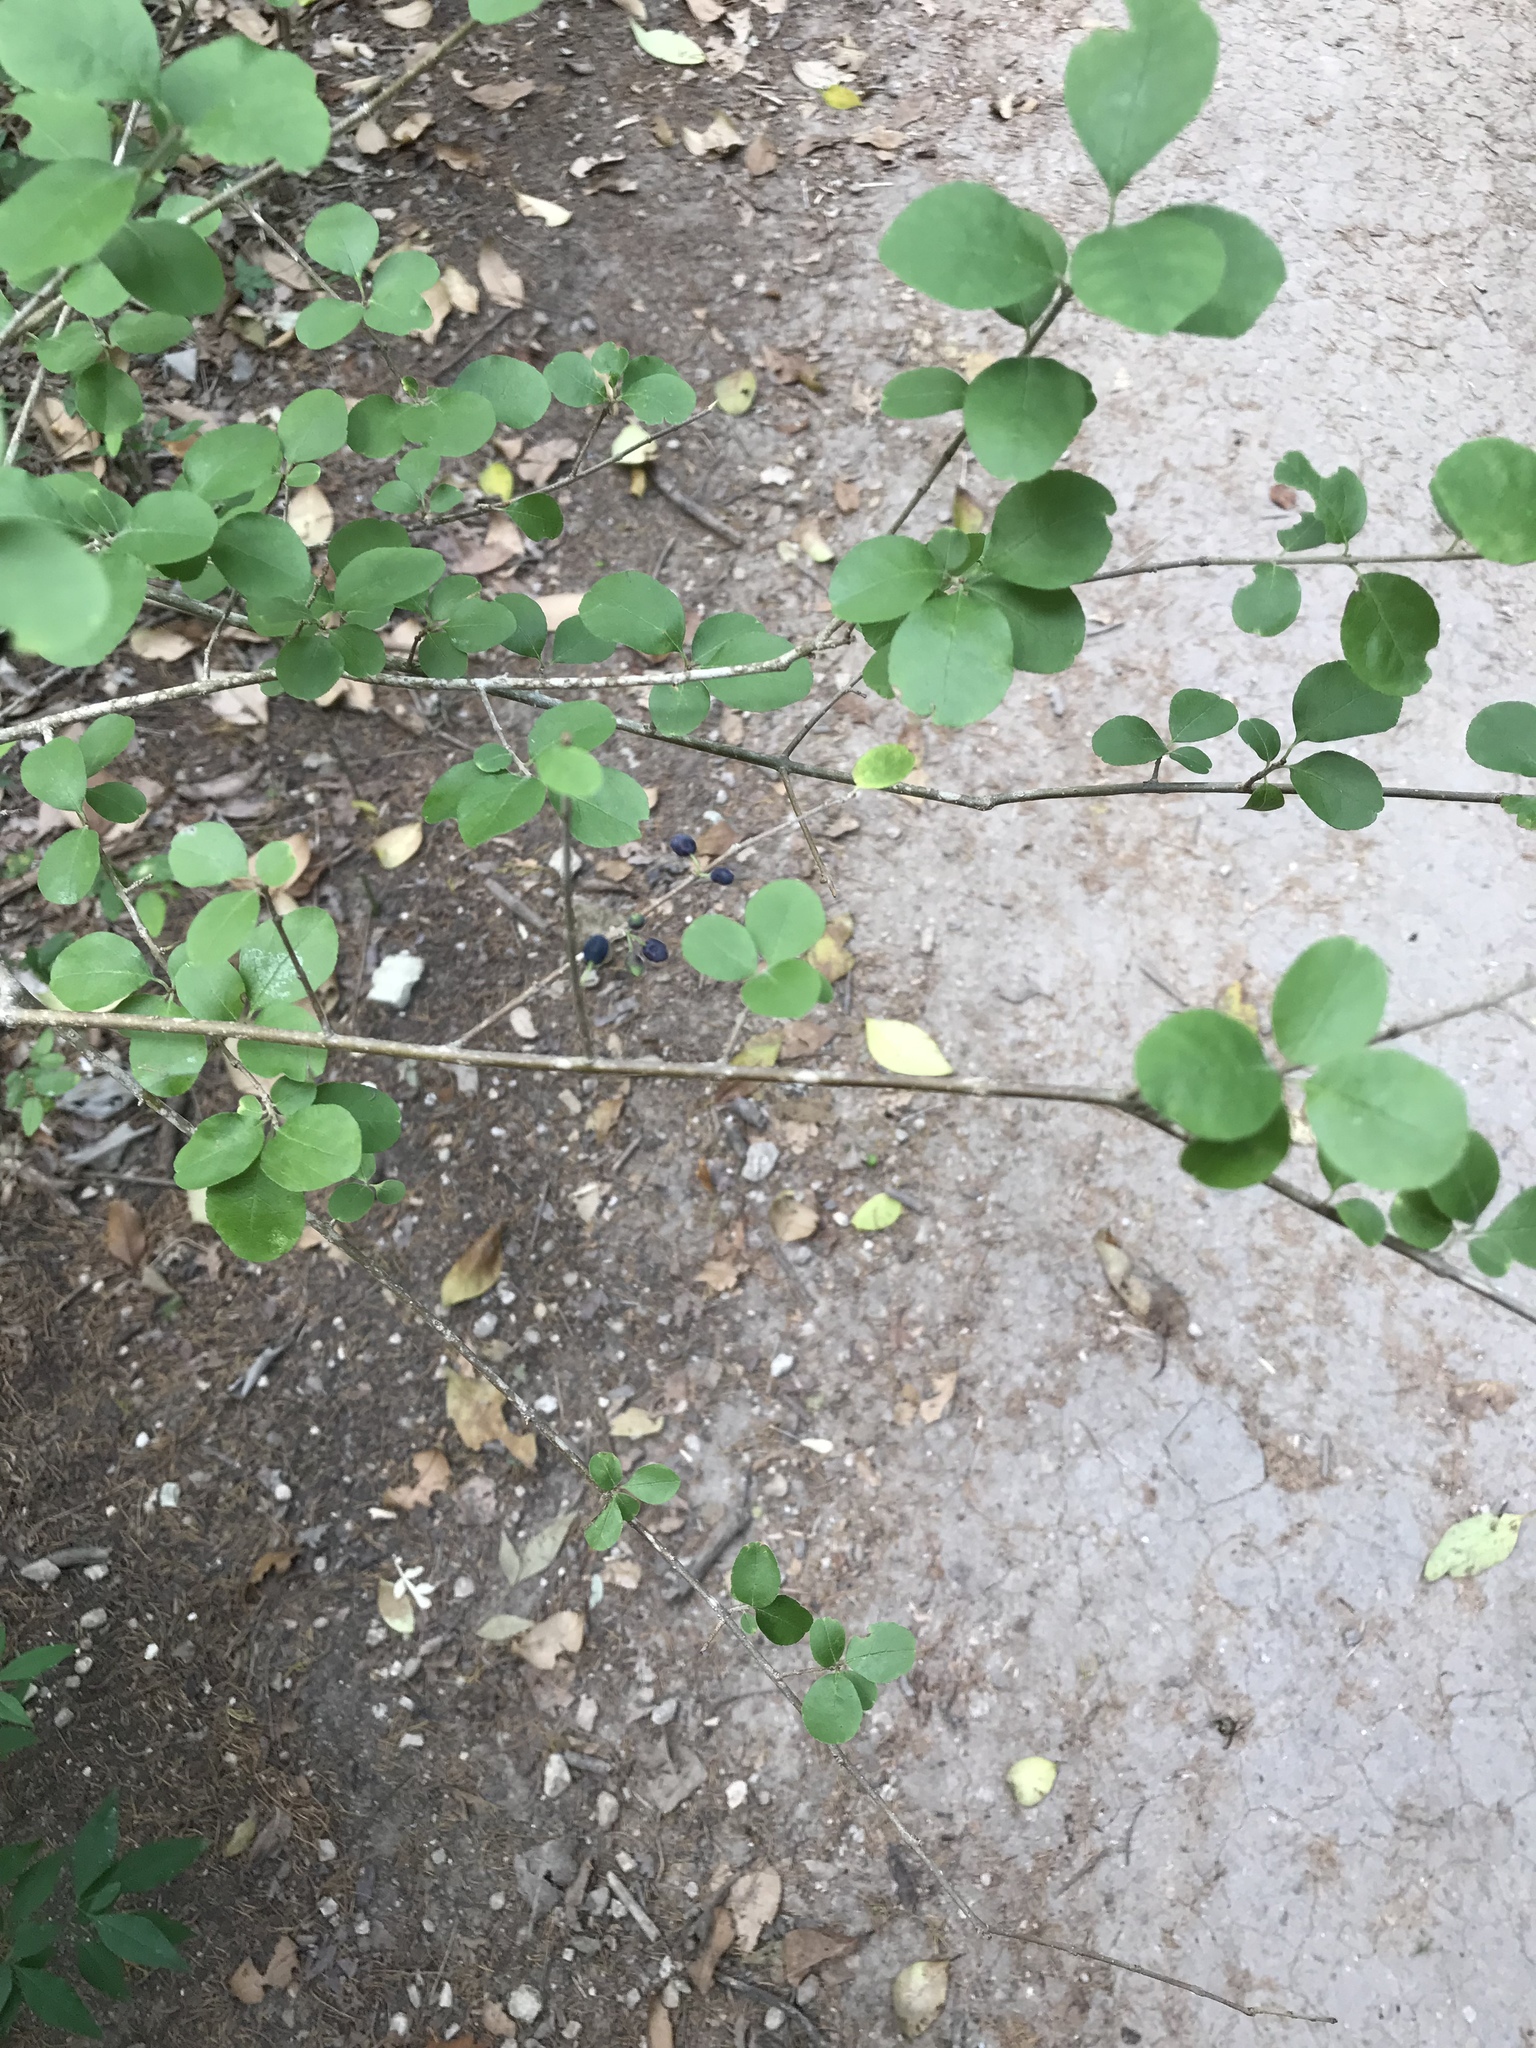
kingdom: Plantae
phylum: Tracheophyta
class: Magnoliopsida
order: Lamiales
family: Oleaceae
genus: Forestiera
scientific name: Forestiera pubescens
